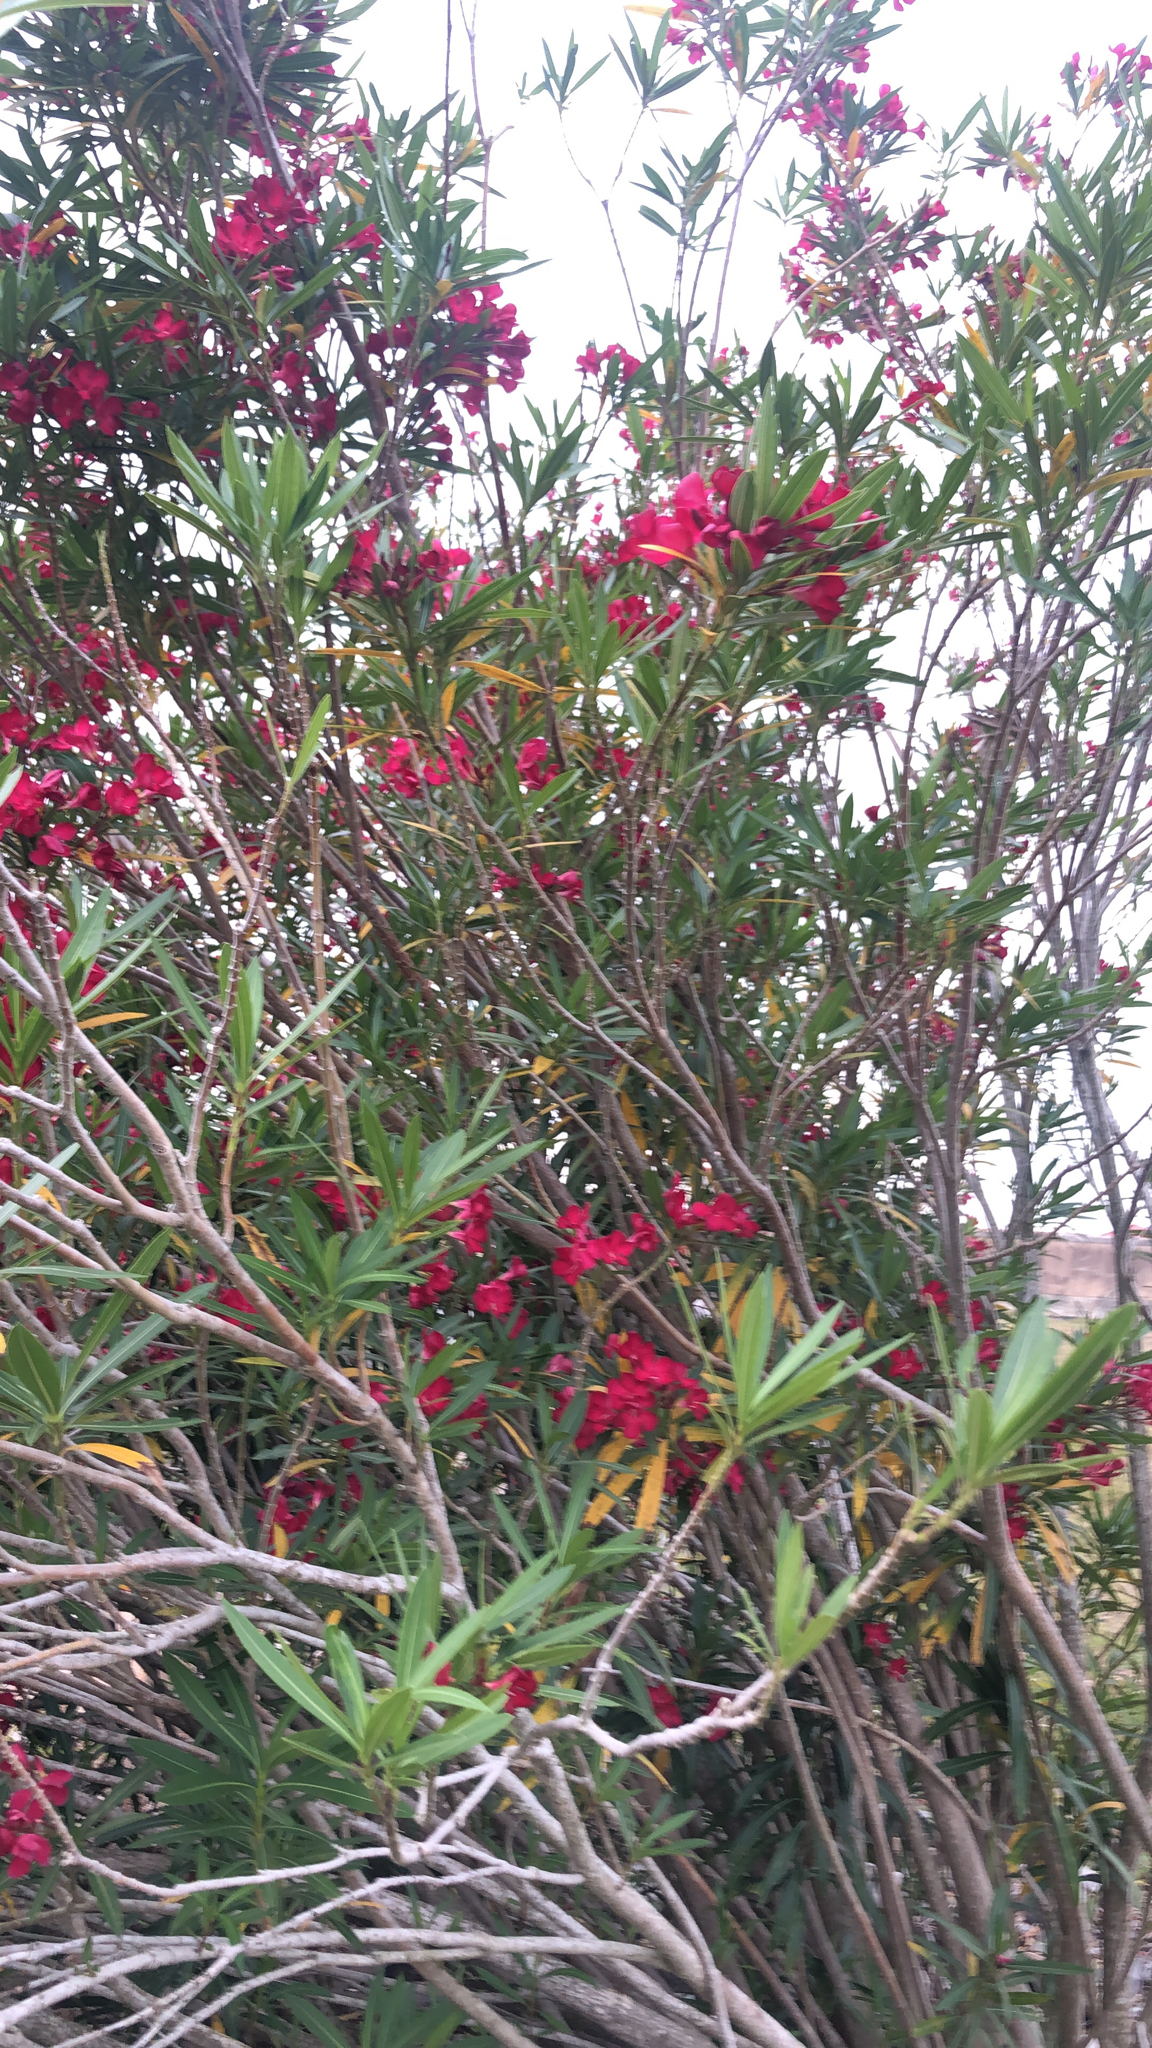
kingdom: Plantae
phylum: Tracheophyta
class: Magnoliopsida
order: Gentianales
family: Apocynaceae
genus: Nerium
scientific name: Nerium oleander
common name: Oleander
